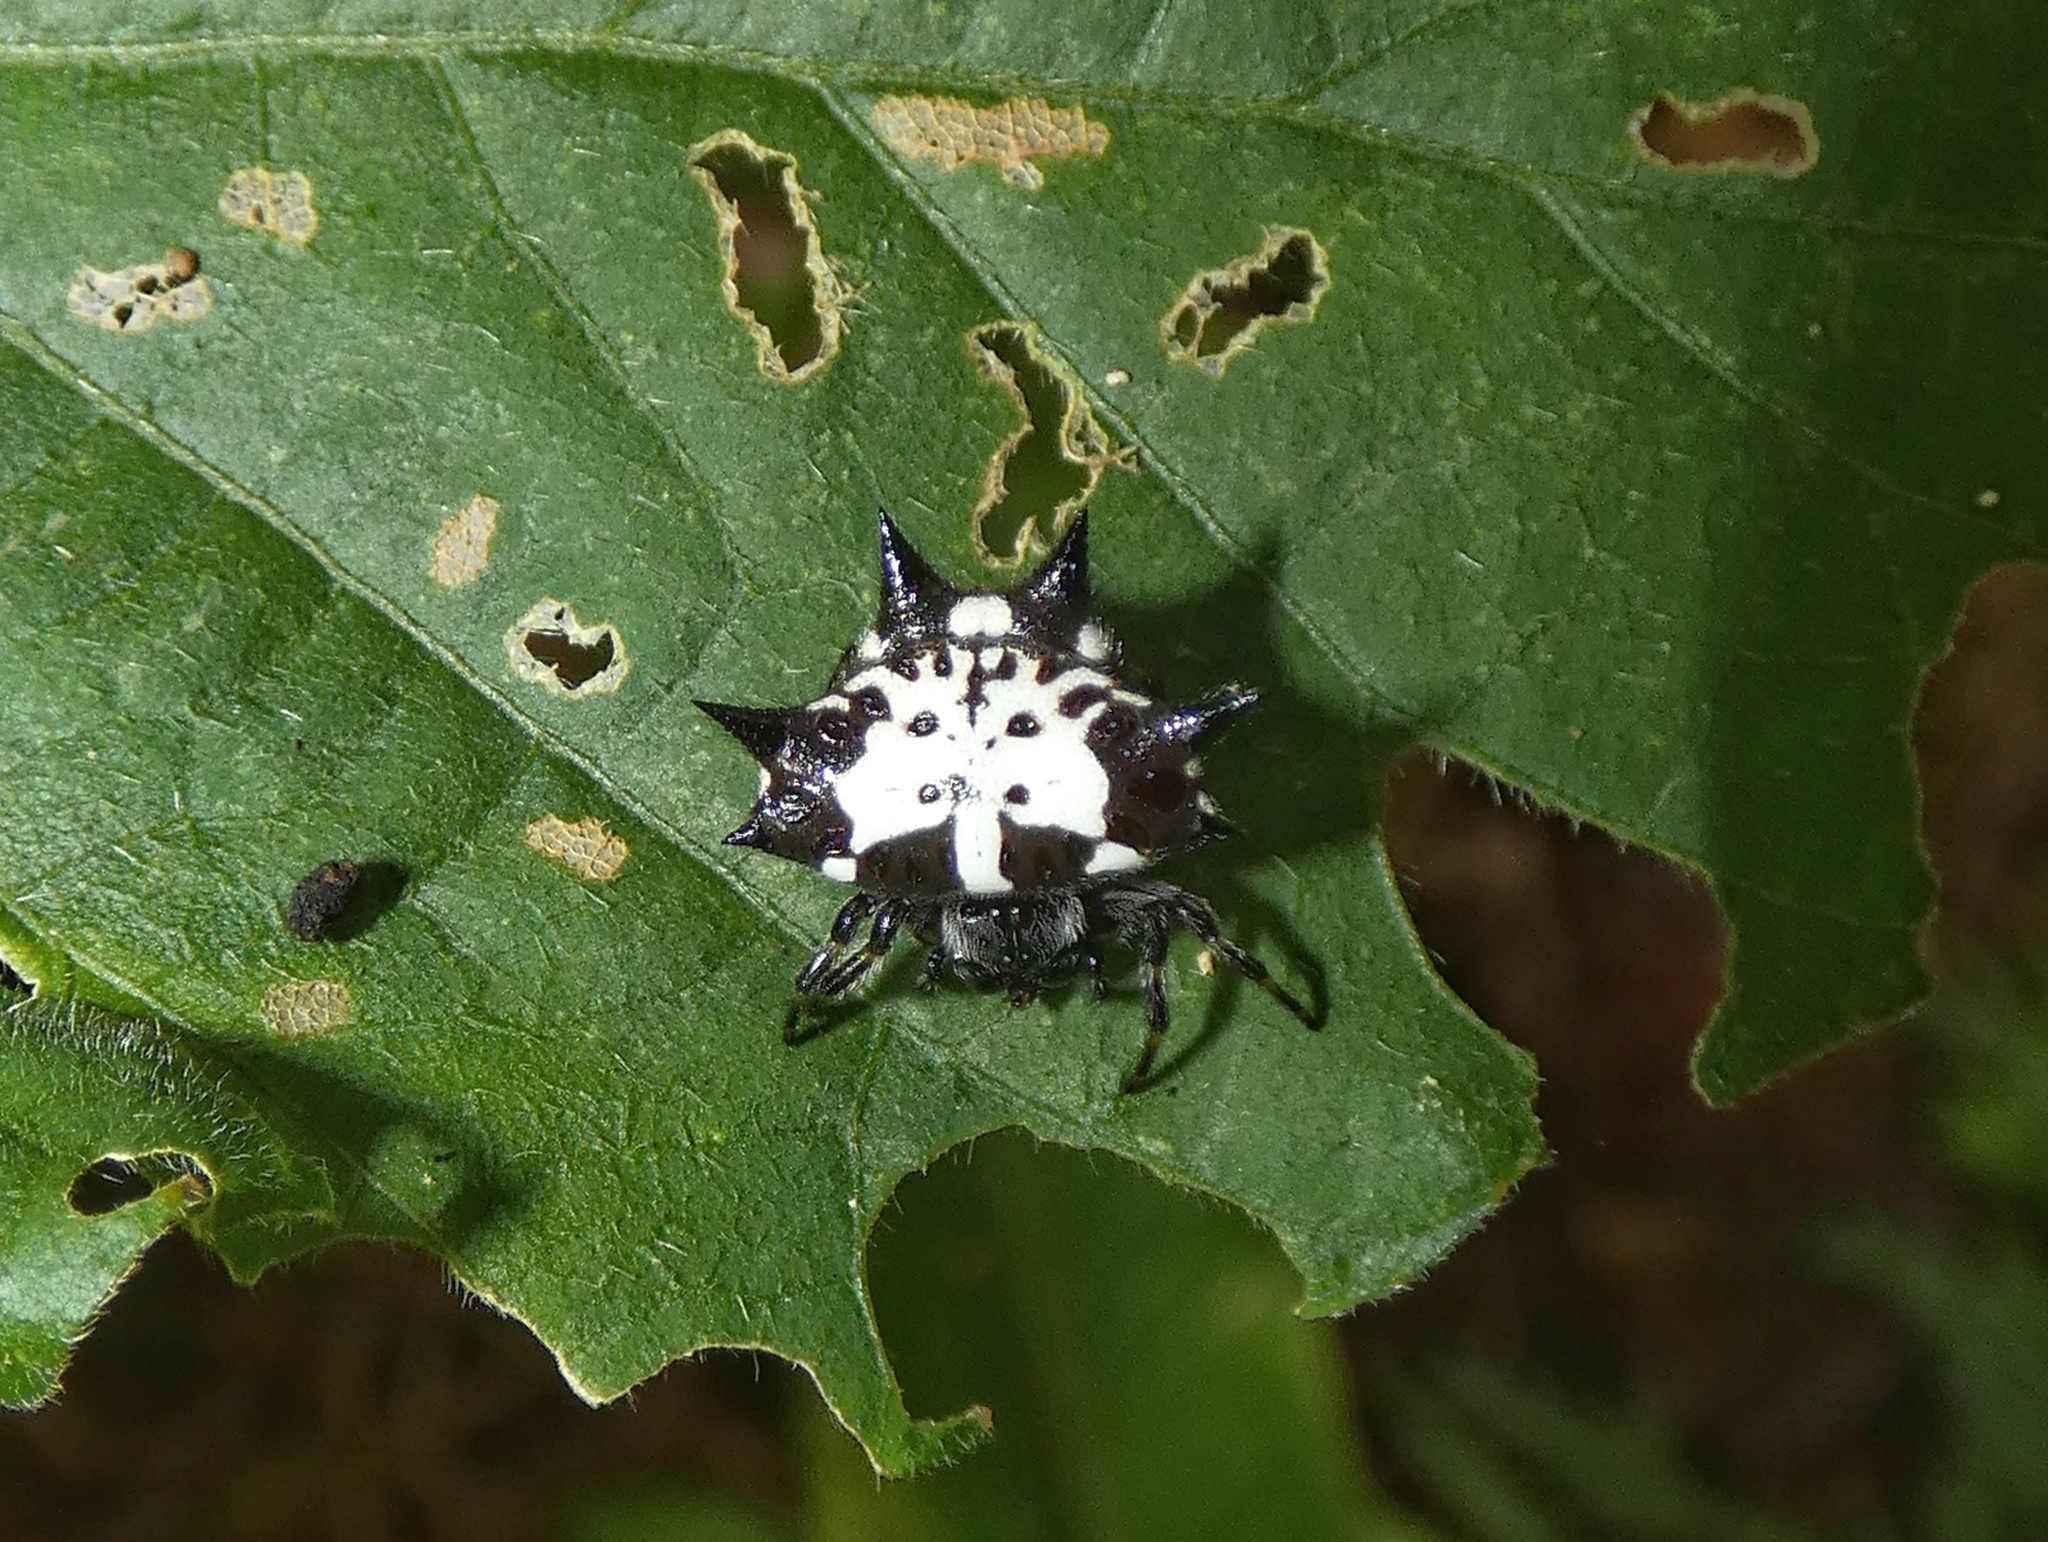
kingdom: Animalia
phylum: Arthropoda
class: Arachnida
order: Araneae
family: Araneidae
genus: Gasteracantha
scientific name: Gasteracantha kuhli
